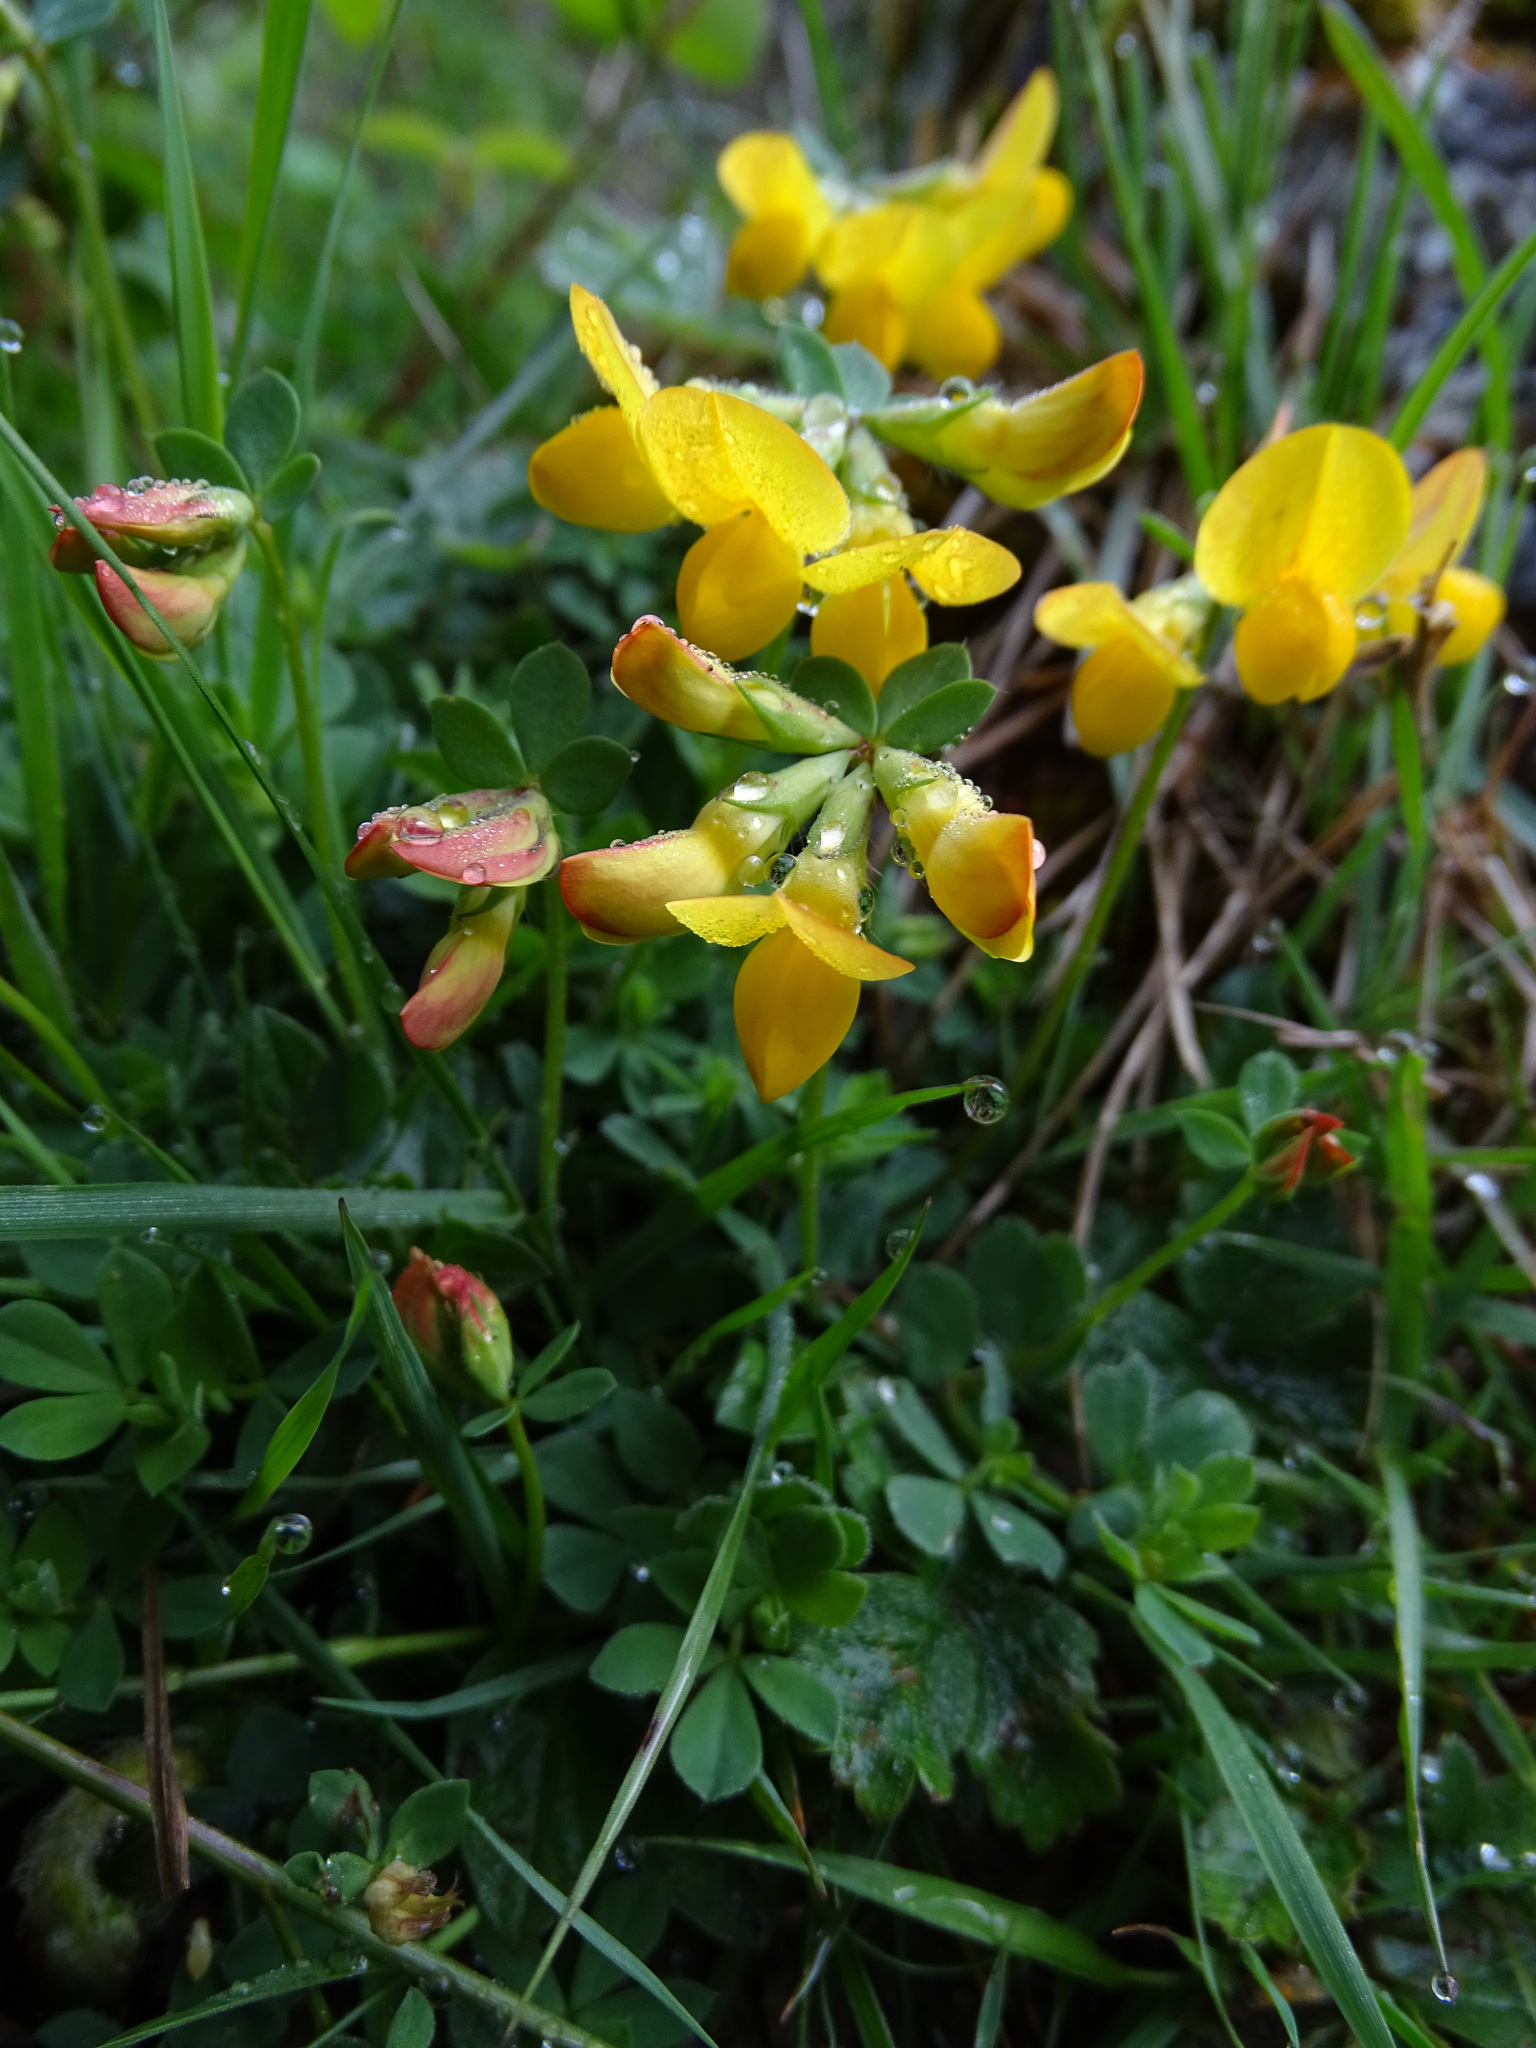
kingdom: Plantae
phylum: Tracheophyta
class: Magnoliopsida
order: Fabales
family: Fabaceae
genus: Lotus
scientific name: Lotus corniculatus
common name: Common bird's-foot-trefoil
